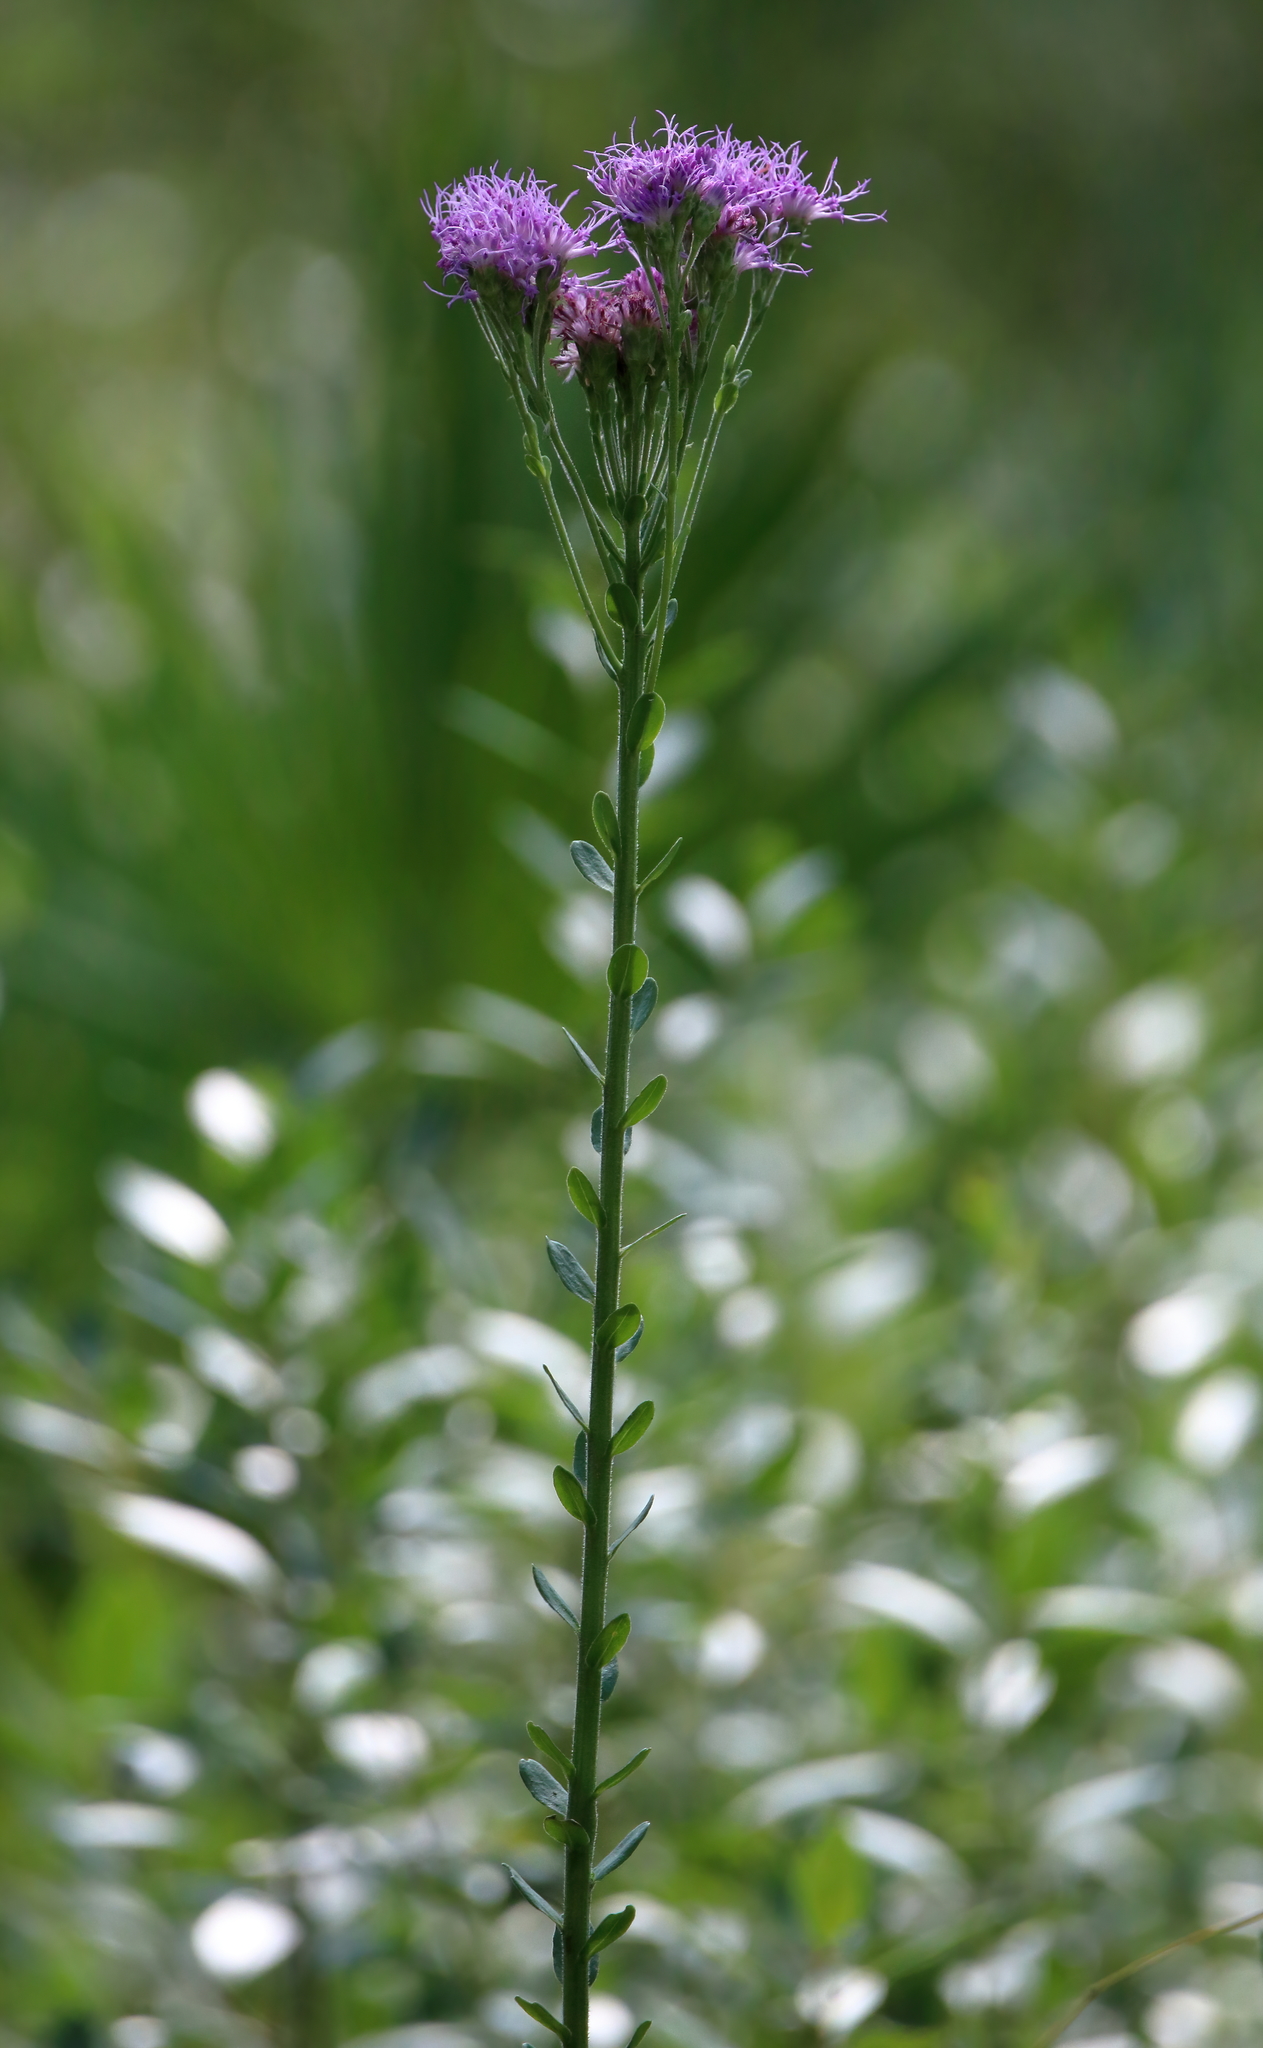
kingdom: Plantae
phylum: Tracheophyta
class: Magnoliopsida
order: Asterales
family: Asteraceae
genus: Carphephorus
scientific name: Carphephorus corymbosus
